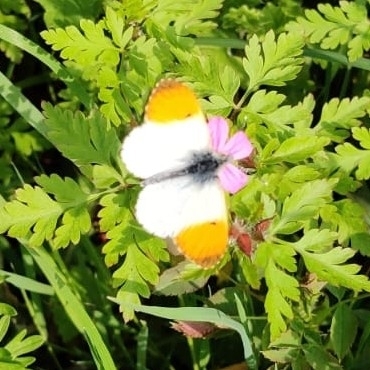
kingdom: Animalia
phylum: Arthropoda
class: Insecta
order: Lepidoptera
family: Pieridae
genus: Anthocharis
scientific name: Anthocharis cardamines
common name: Orange-tip
